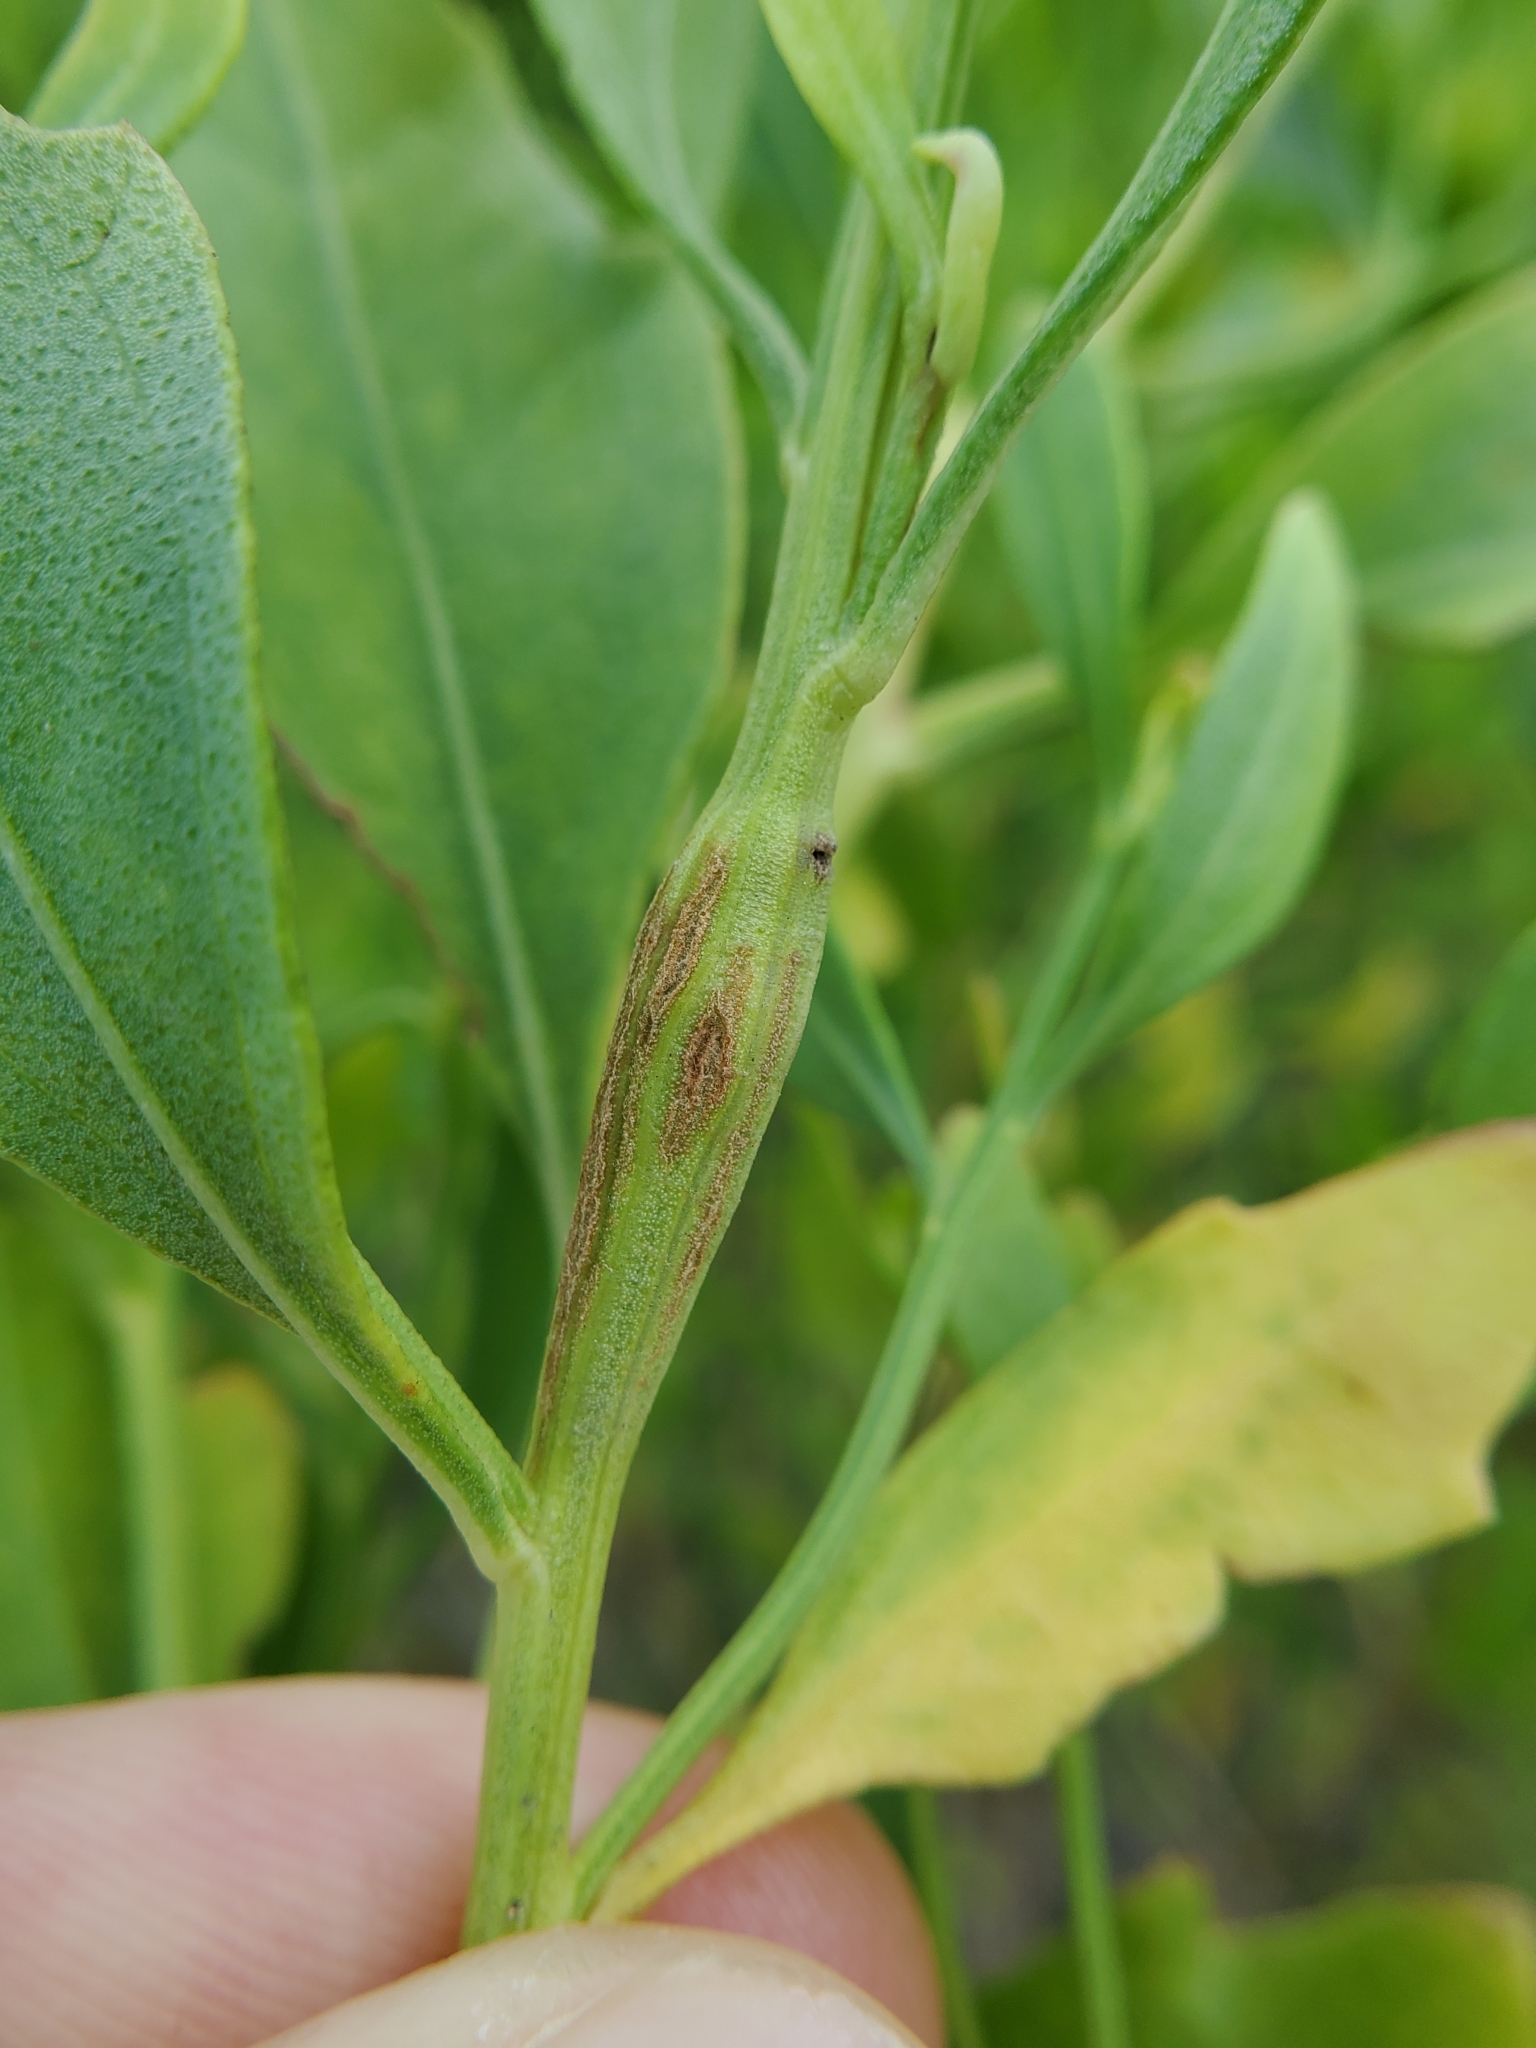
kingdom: Animalia
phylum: Arthropoda
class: Insecta
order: Lepidoptera
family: Tortricidae
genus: Epiblema
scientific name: Epiblema discretivana
